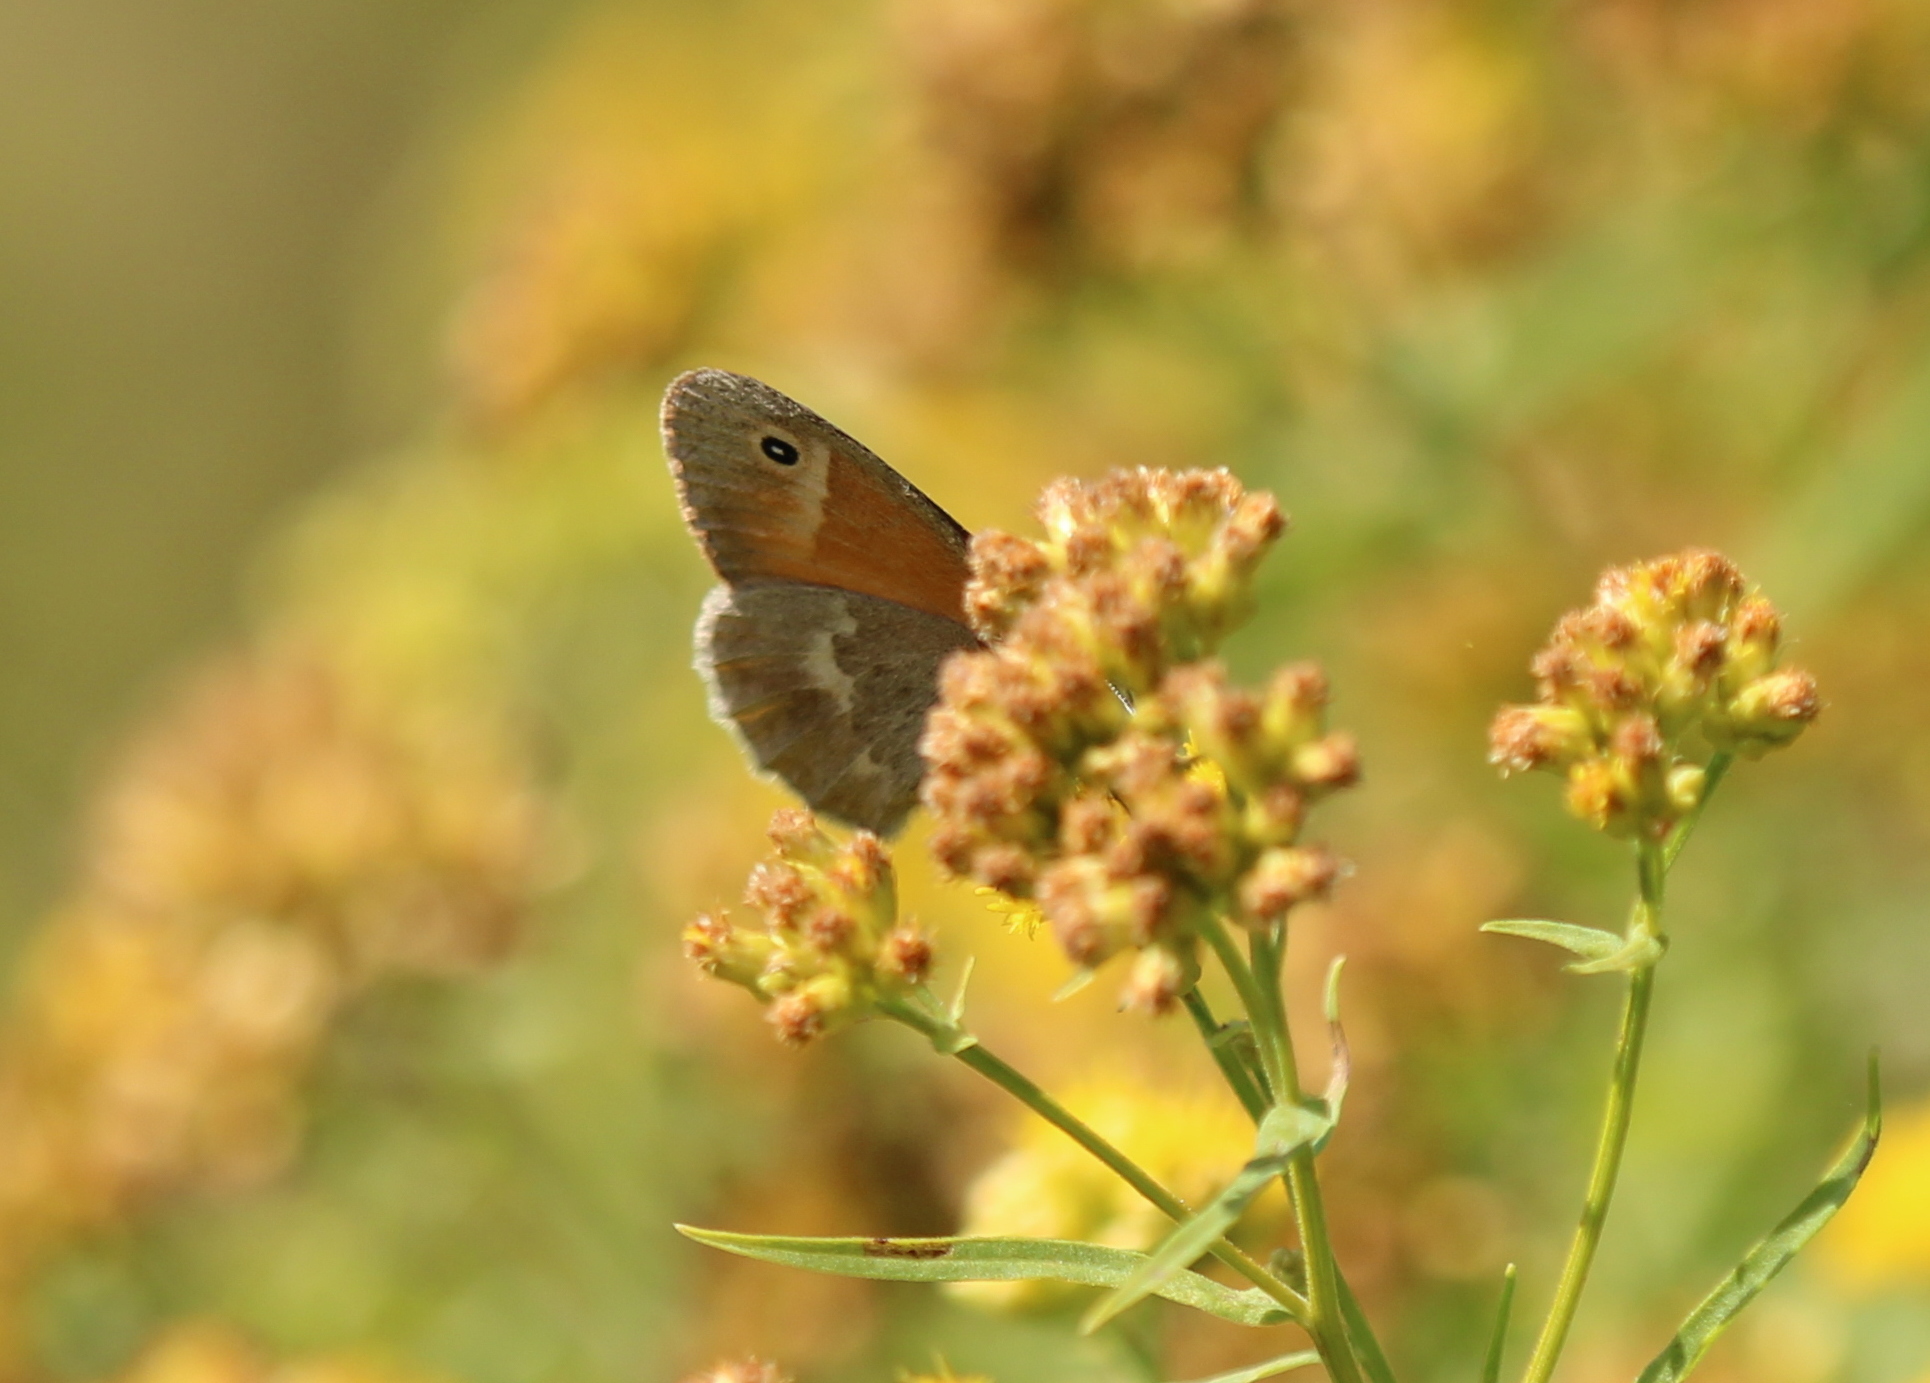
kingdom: Animalia
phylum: Arthropoda
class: Insecta
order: Lepidoptera
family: Nymphalidae
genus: Coenonympha
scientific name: Coenonympha california
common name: Common ringlet
